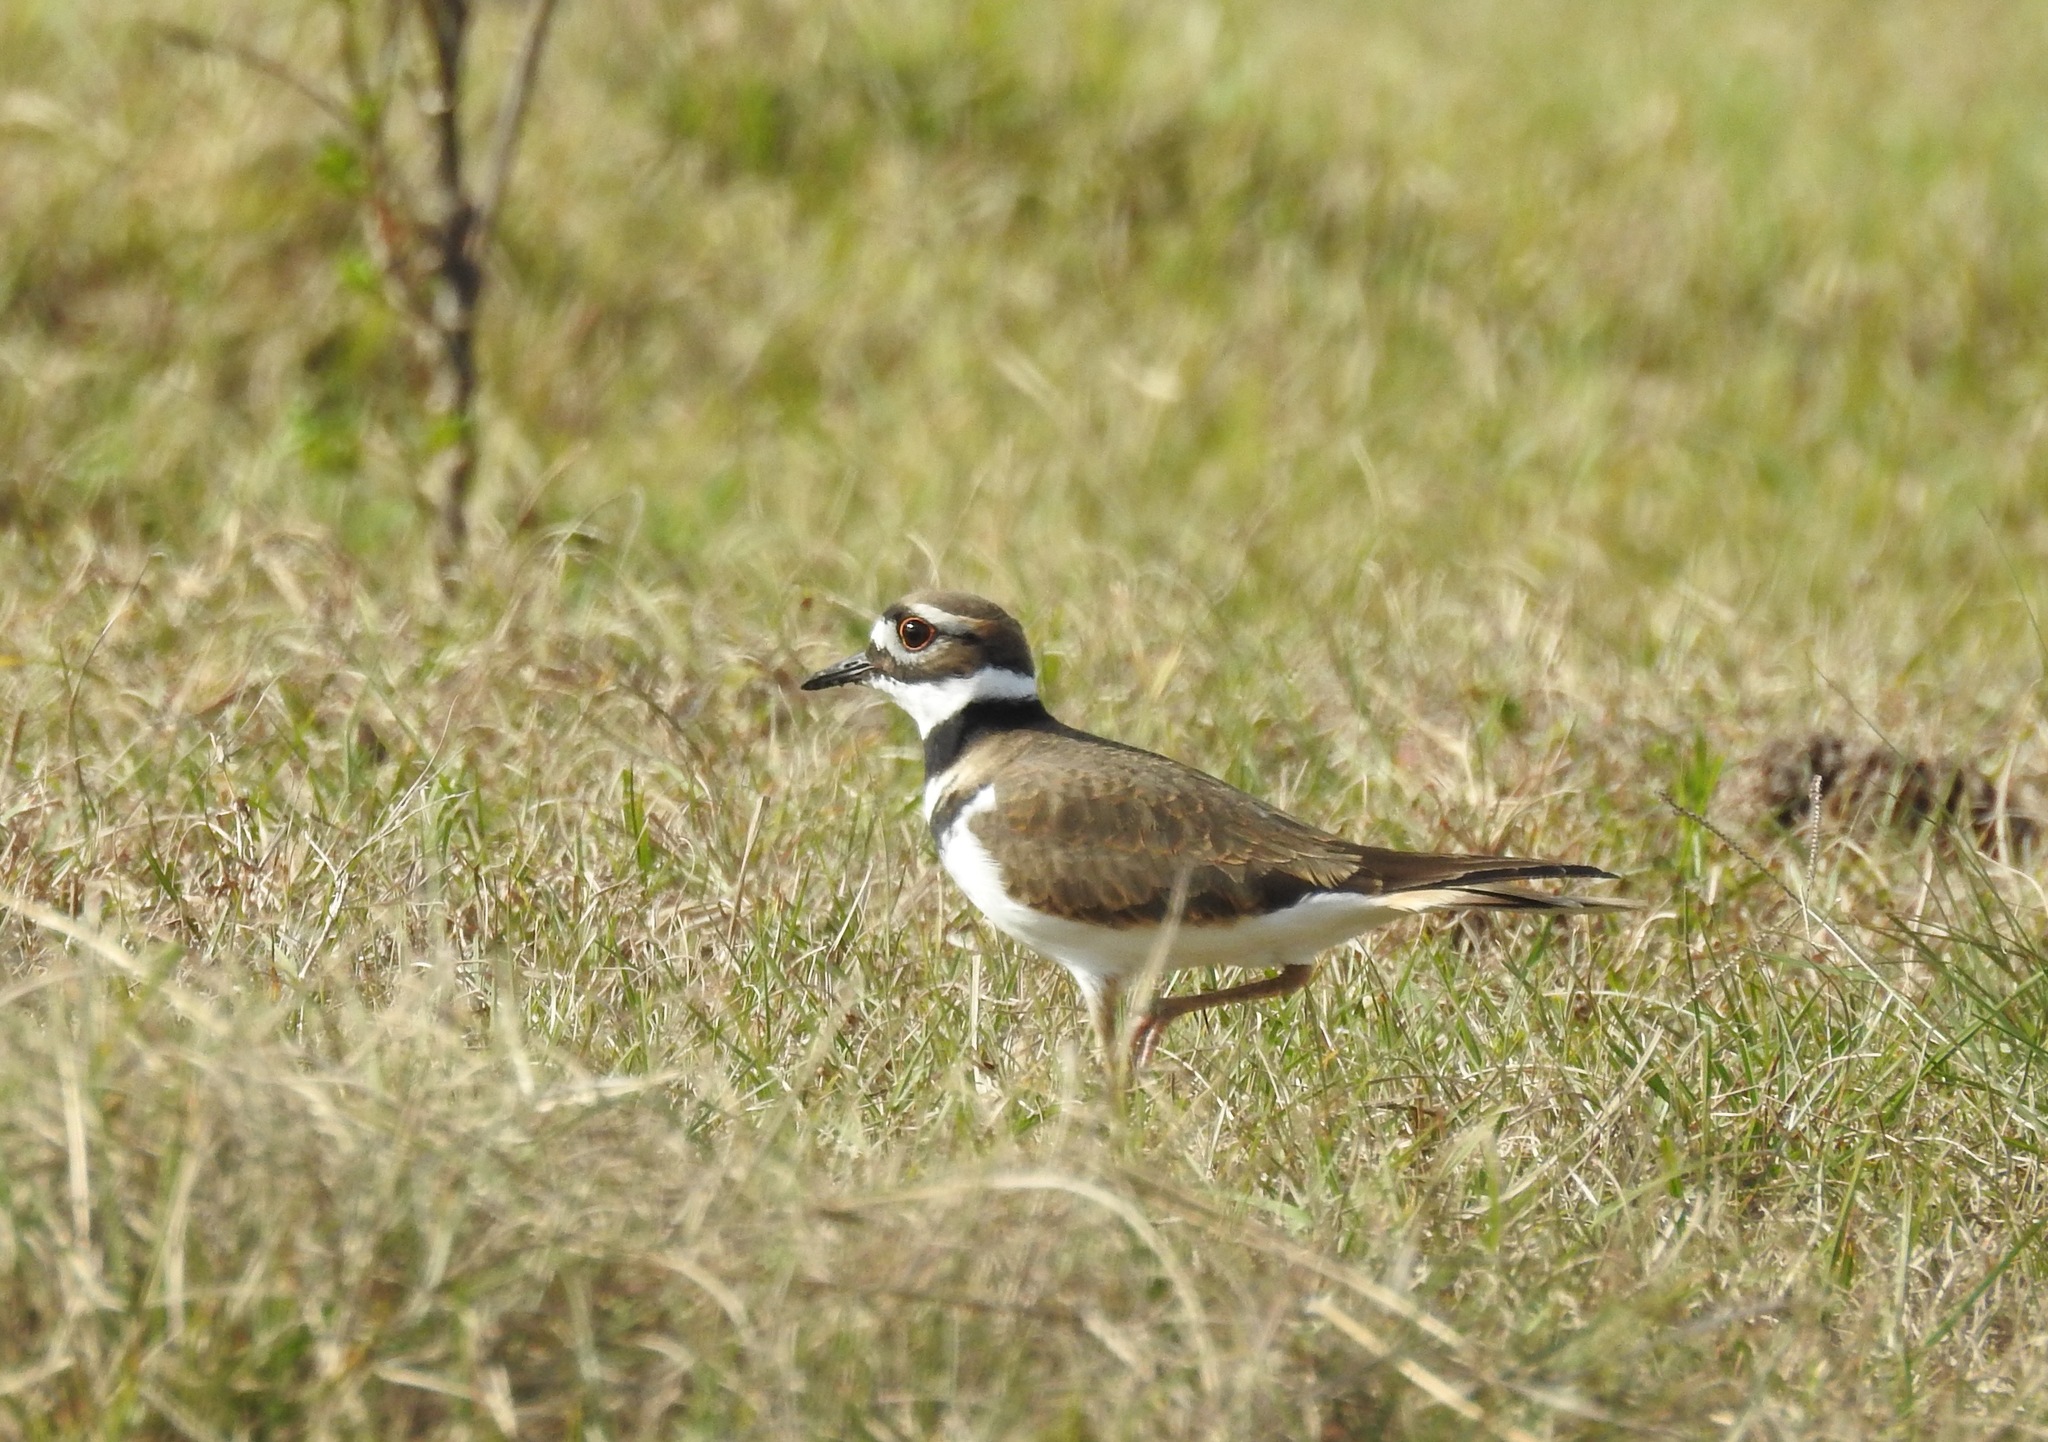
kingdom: Animalia
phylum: Chordata
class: Aves
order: Charadriiformes
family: Charadriidae
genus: Charadrius
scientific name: Charadrius vociferus
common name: Killdeer
